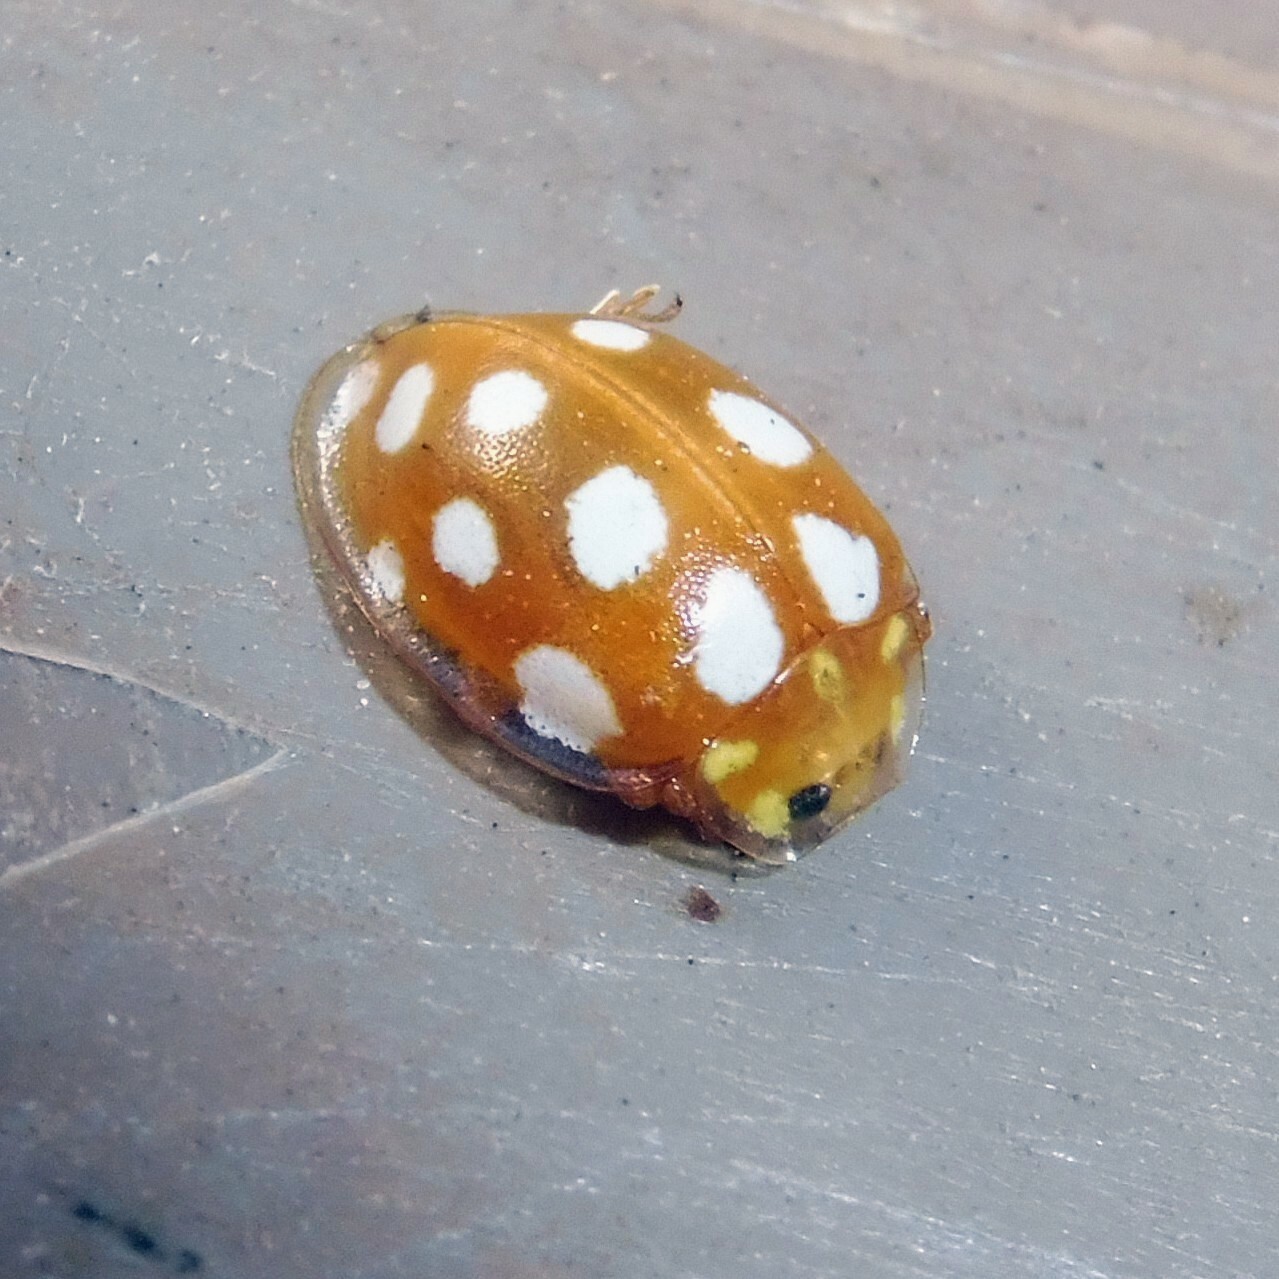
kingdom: Animalia
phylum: Arthropoda
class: Insecta
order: Coleoptera
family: Coccinellidae
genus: Halyzia
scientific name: Halyzia sedecimguttata
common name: Orange ladybird
